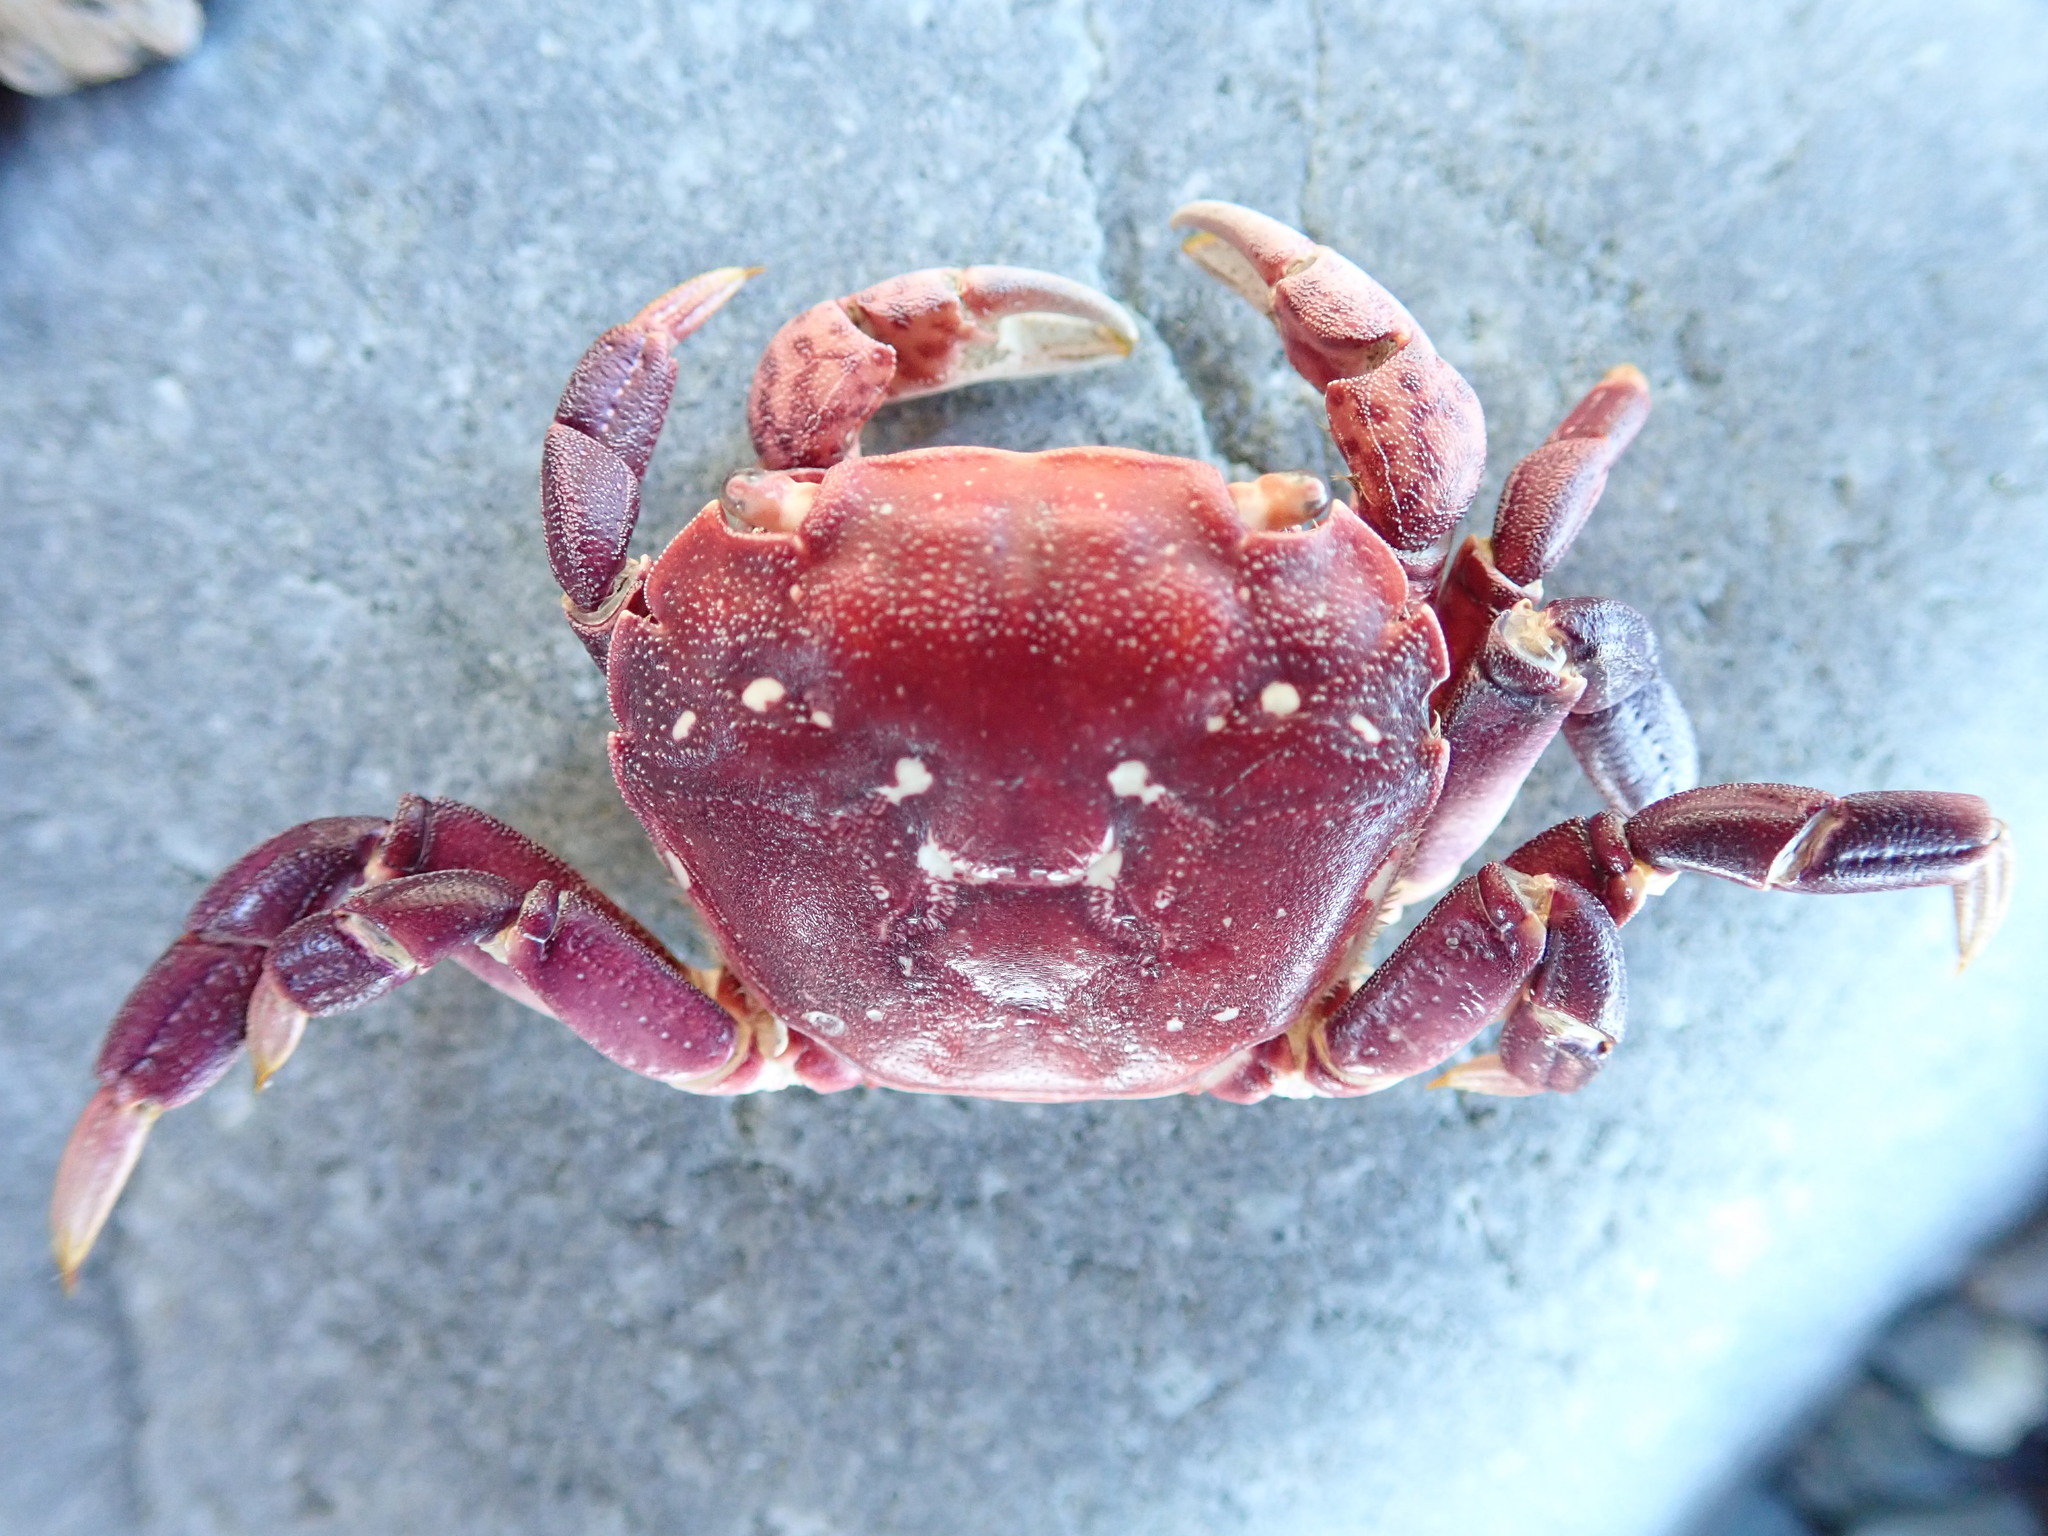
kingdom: Animalia
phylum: Arthropoda
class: Malacostraca
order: Decapoda
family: Varunidae
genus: Hemigrapsus
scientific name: Hemigrapsus nudus
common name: Purple shore crab
